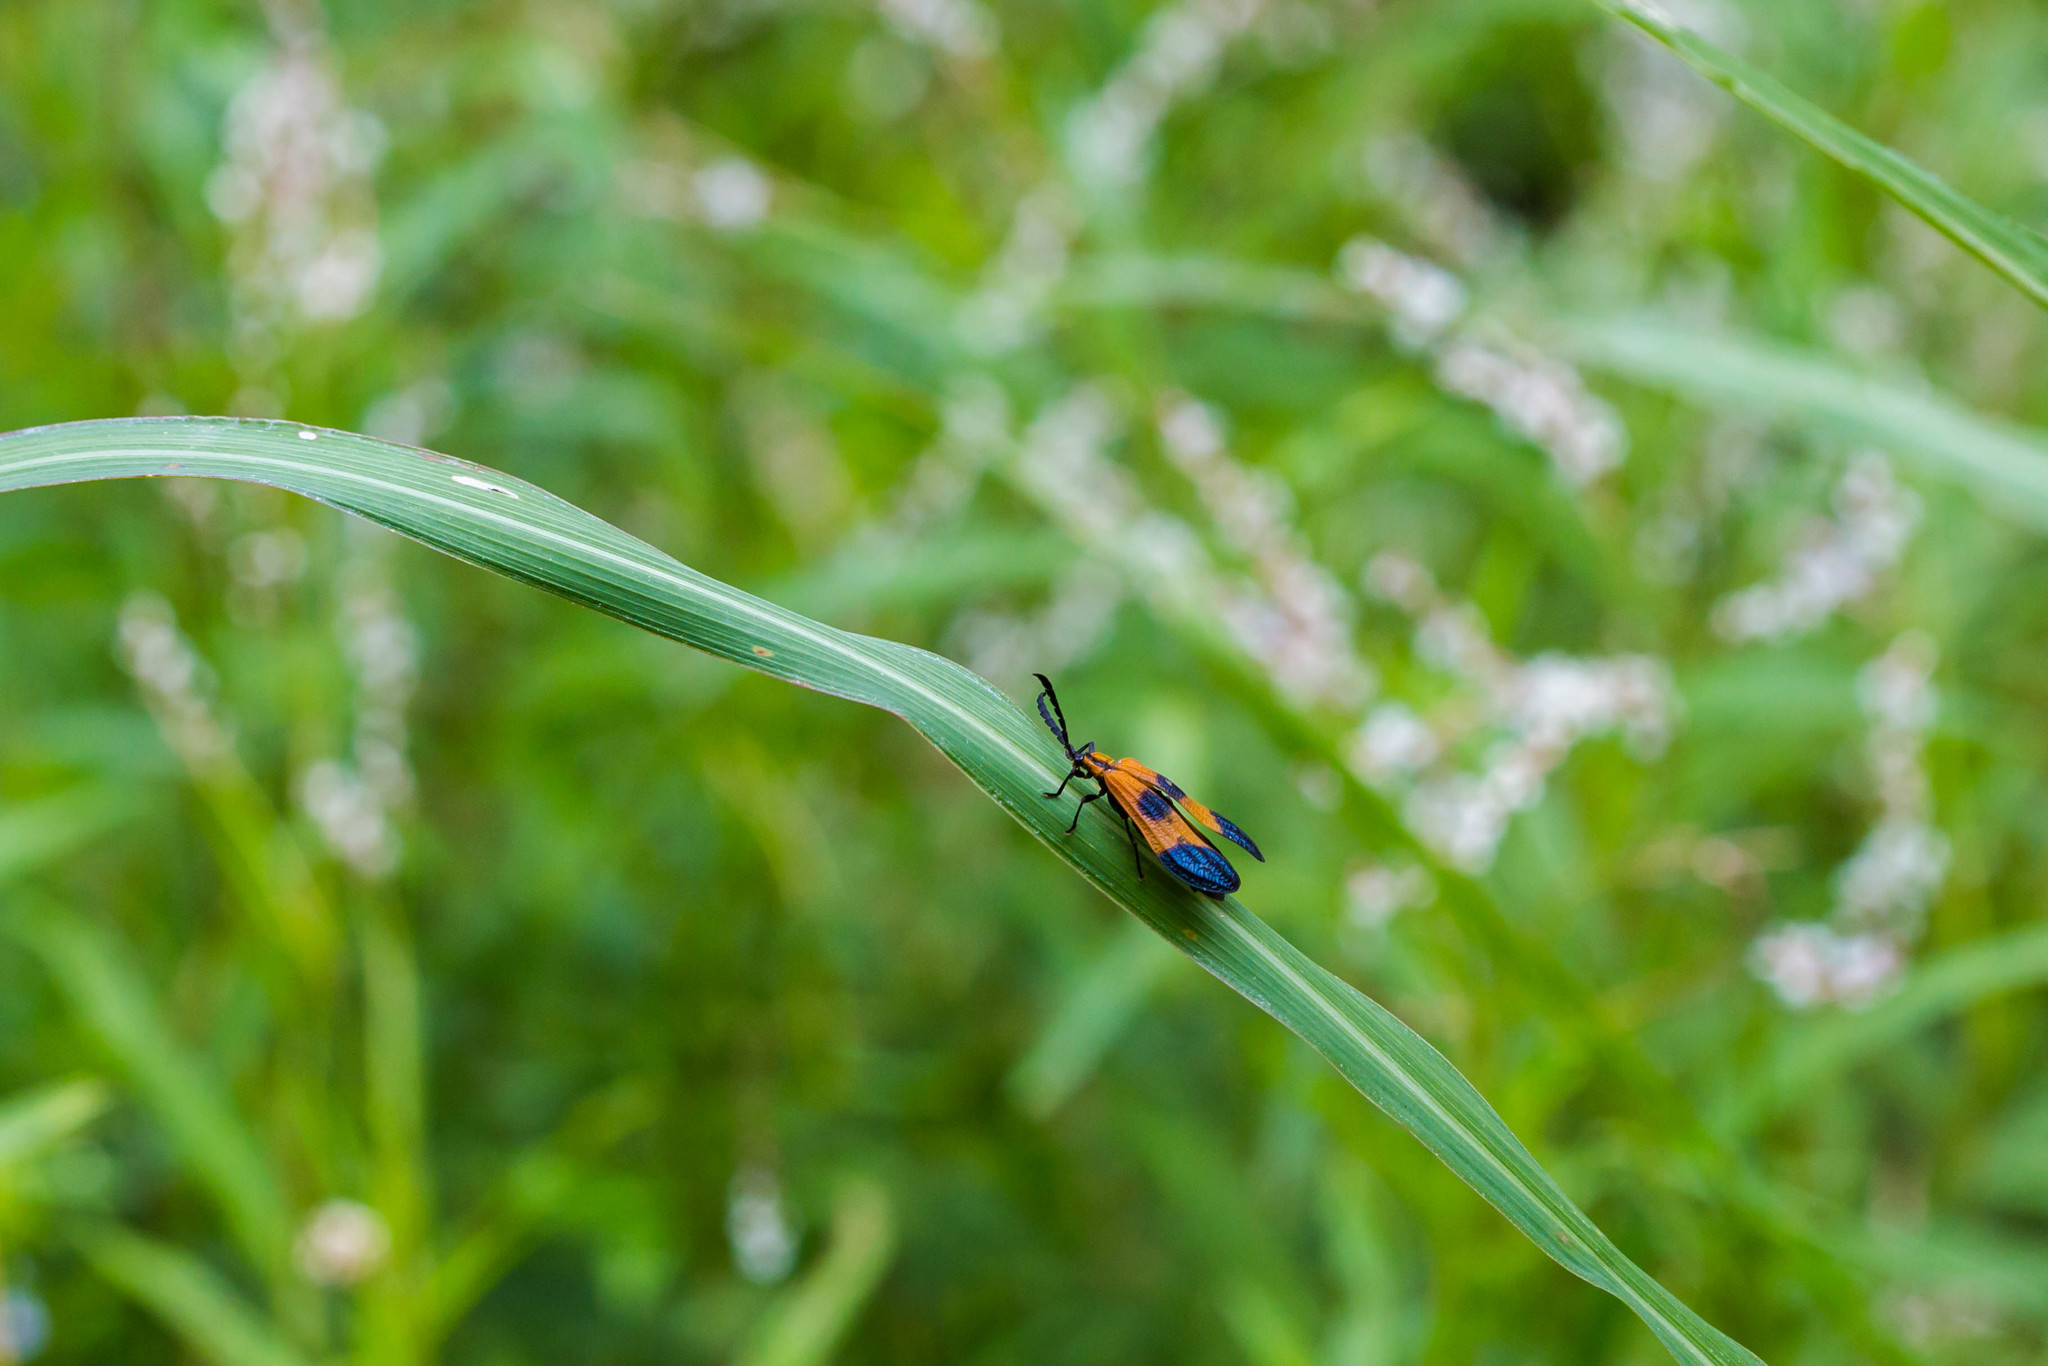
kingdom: Animalia
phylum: Arthropoda
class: Insecta
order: Coleoptera
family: Lycidae
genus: Calopteron
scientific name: Calopteron terminale
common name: End band net-winged beetle
